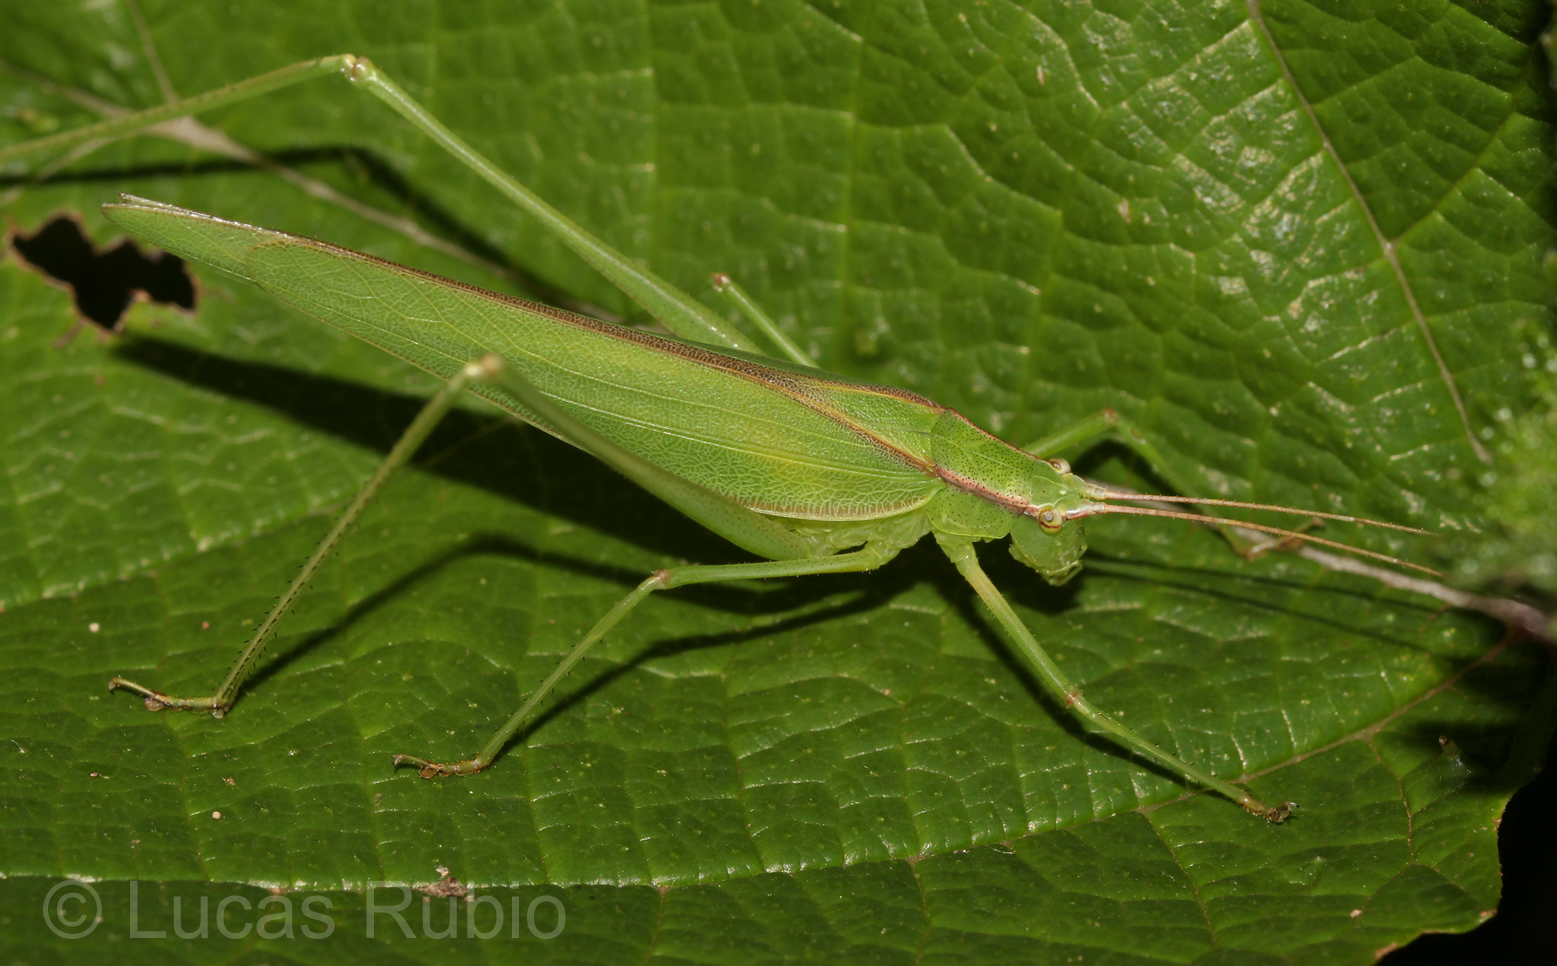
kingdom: Animalia
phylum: Arthropoda
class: Insecta
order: Orthoptera
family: Tettigoniidae
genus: Hyperophora
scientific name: Hyperophora brasiliensis
